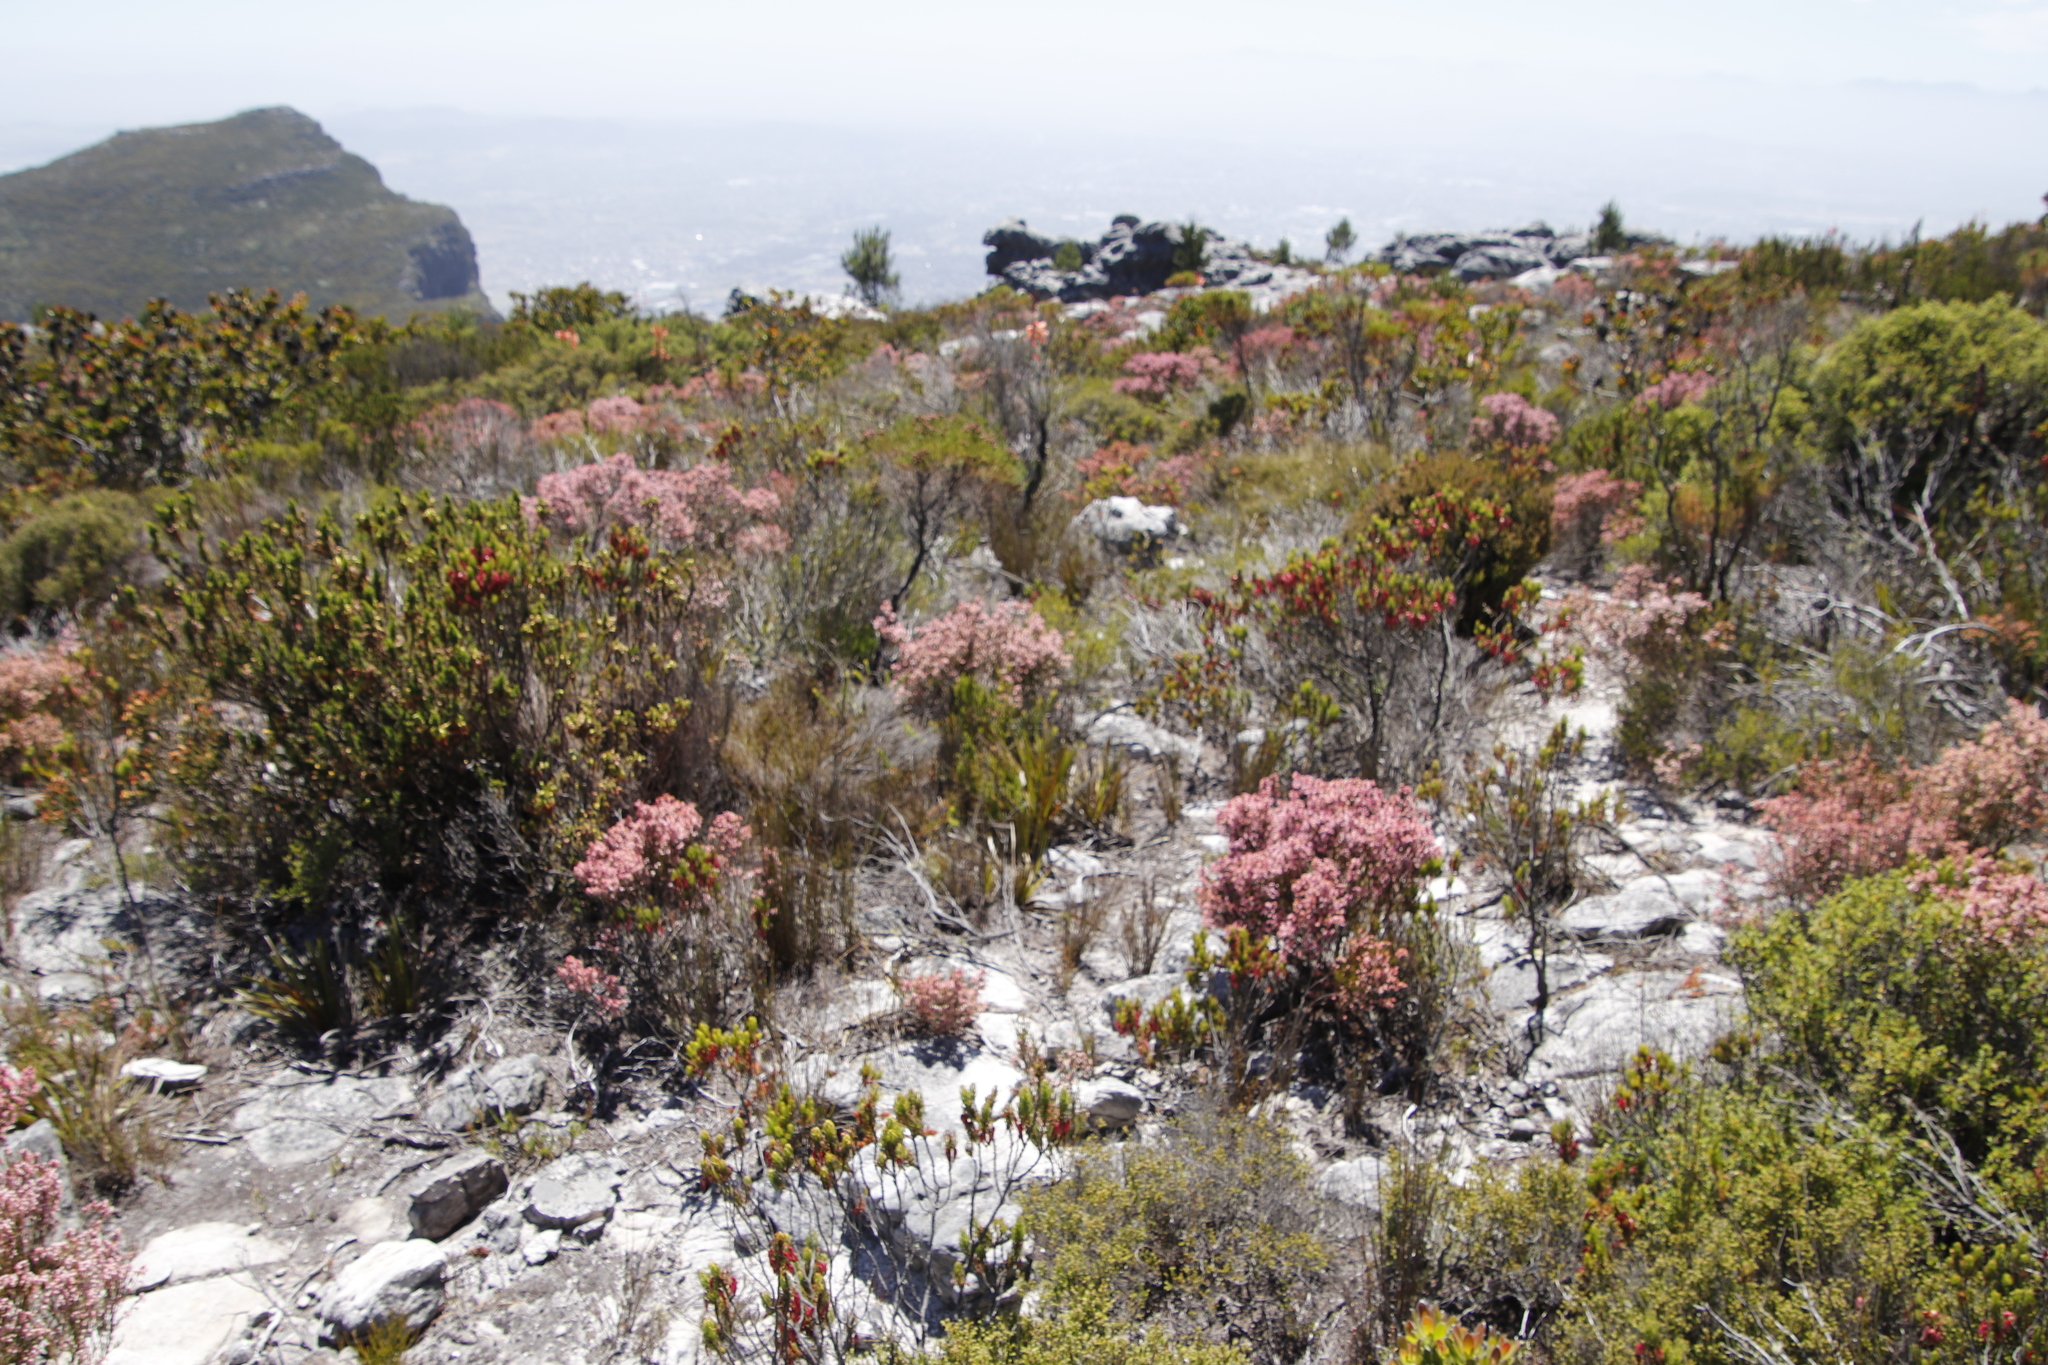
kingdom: Plantae
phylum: Tracheophyta
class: Magnoliopsida
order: Ericales
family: Ericaceae
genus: Erica
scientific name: Erica tenuifolia
